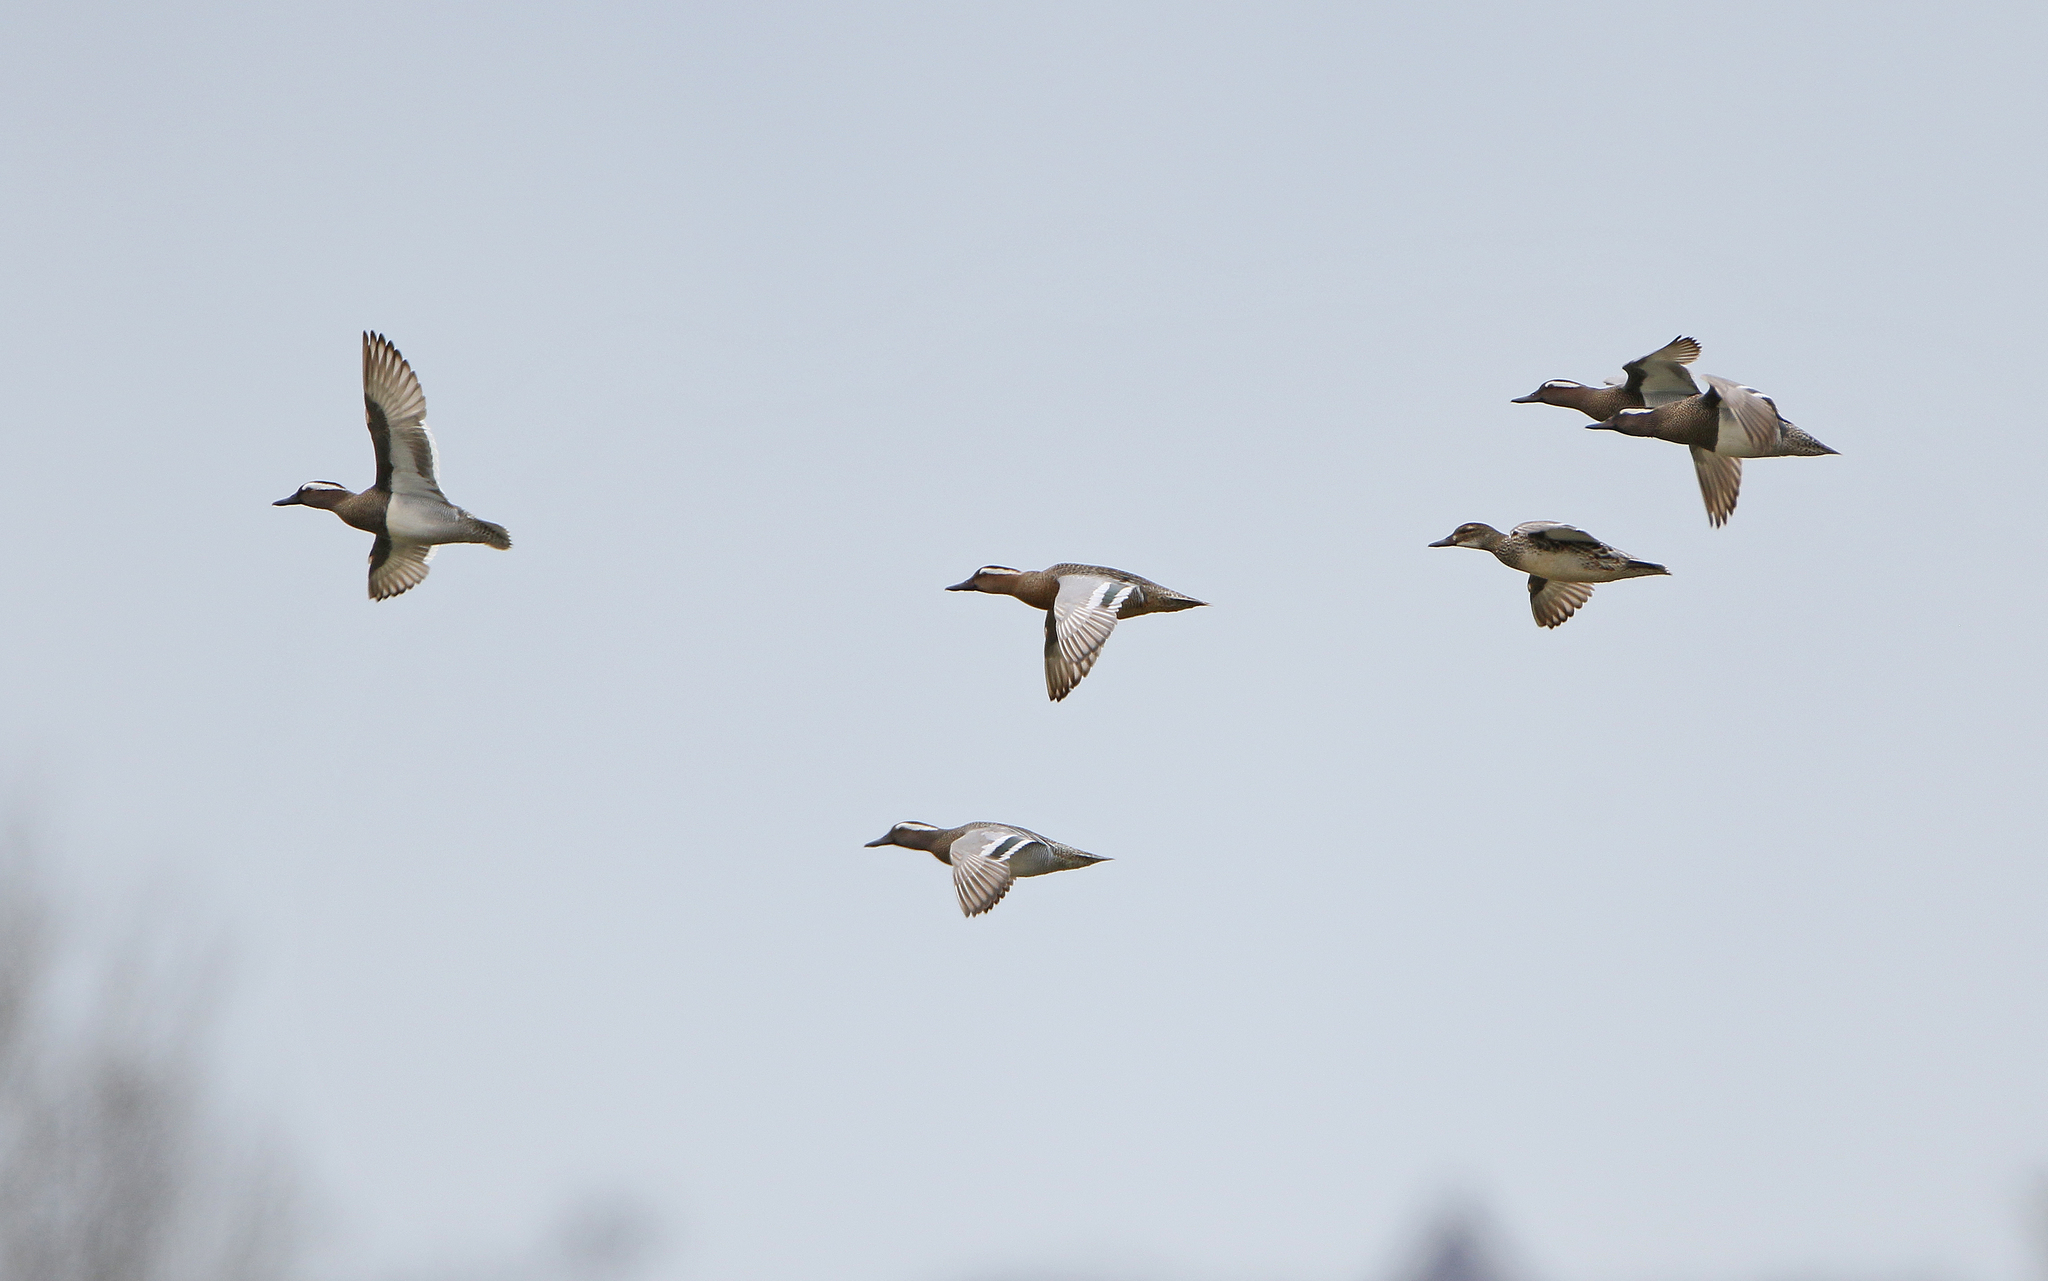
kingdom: Animalia
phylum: Chordata
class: Aves
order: Anseriformes
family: Anatidae
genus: Spatula
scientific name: Spatula querquedula
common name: Garganey
